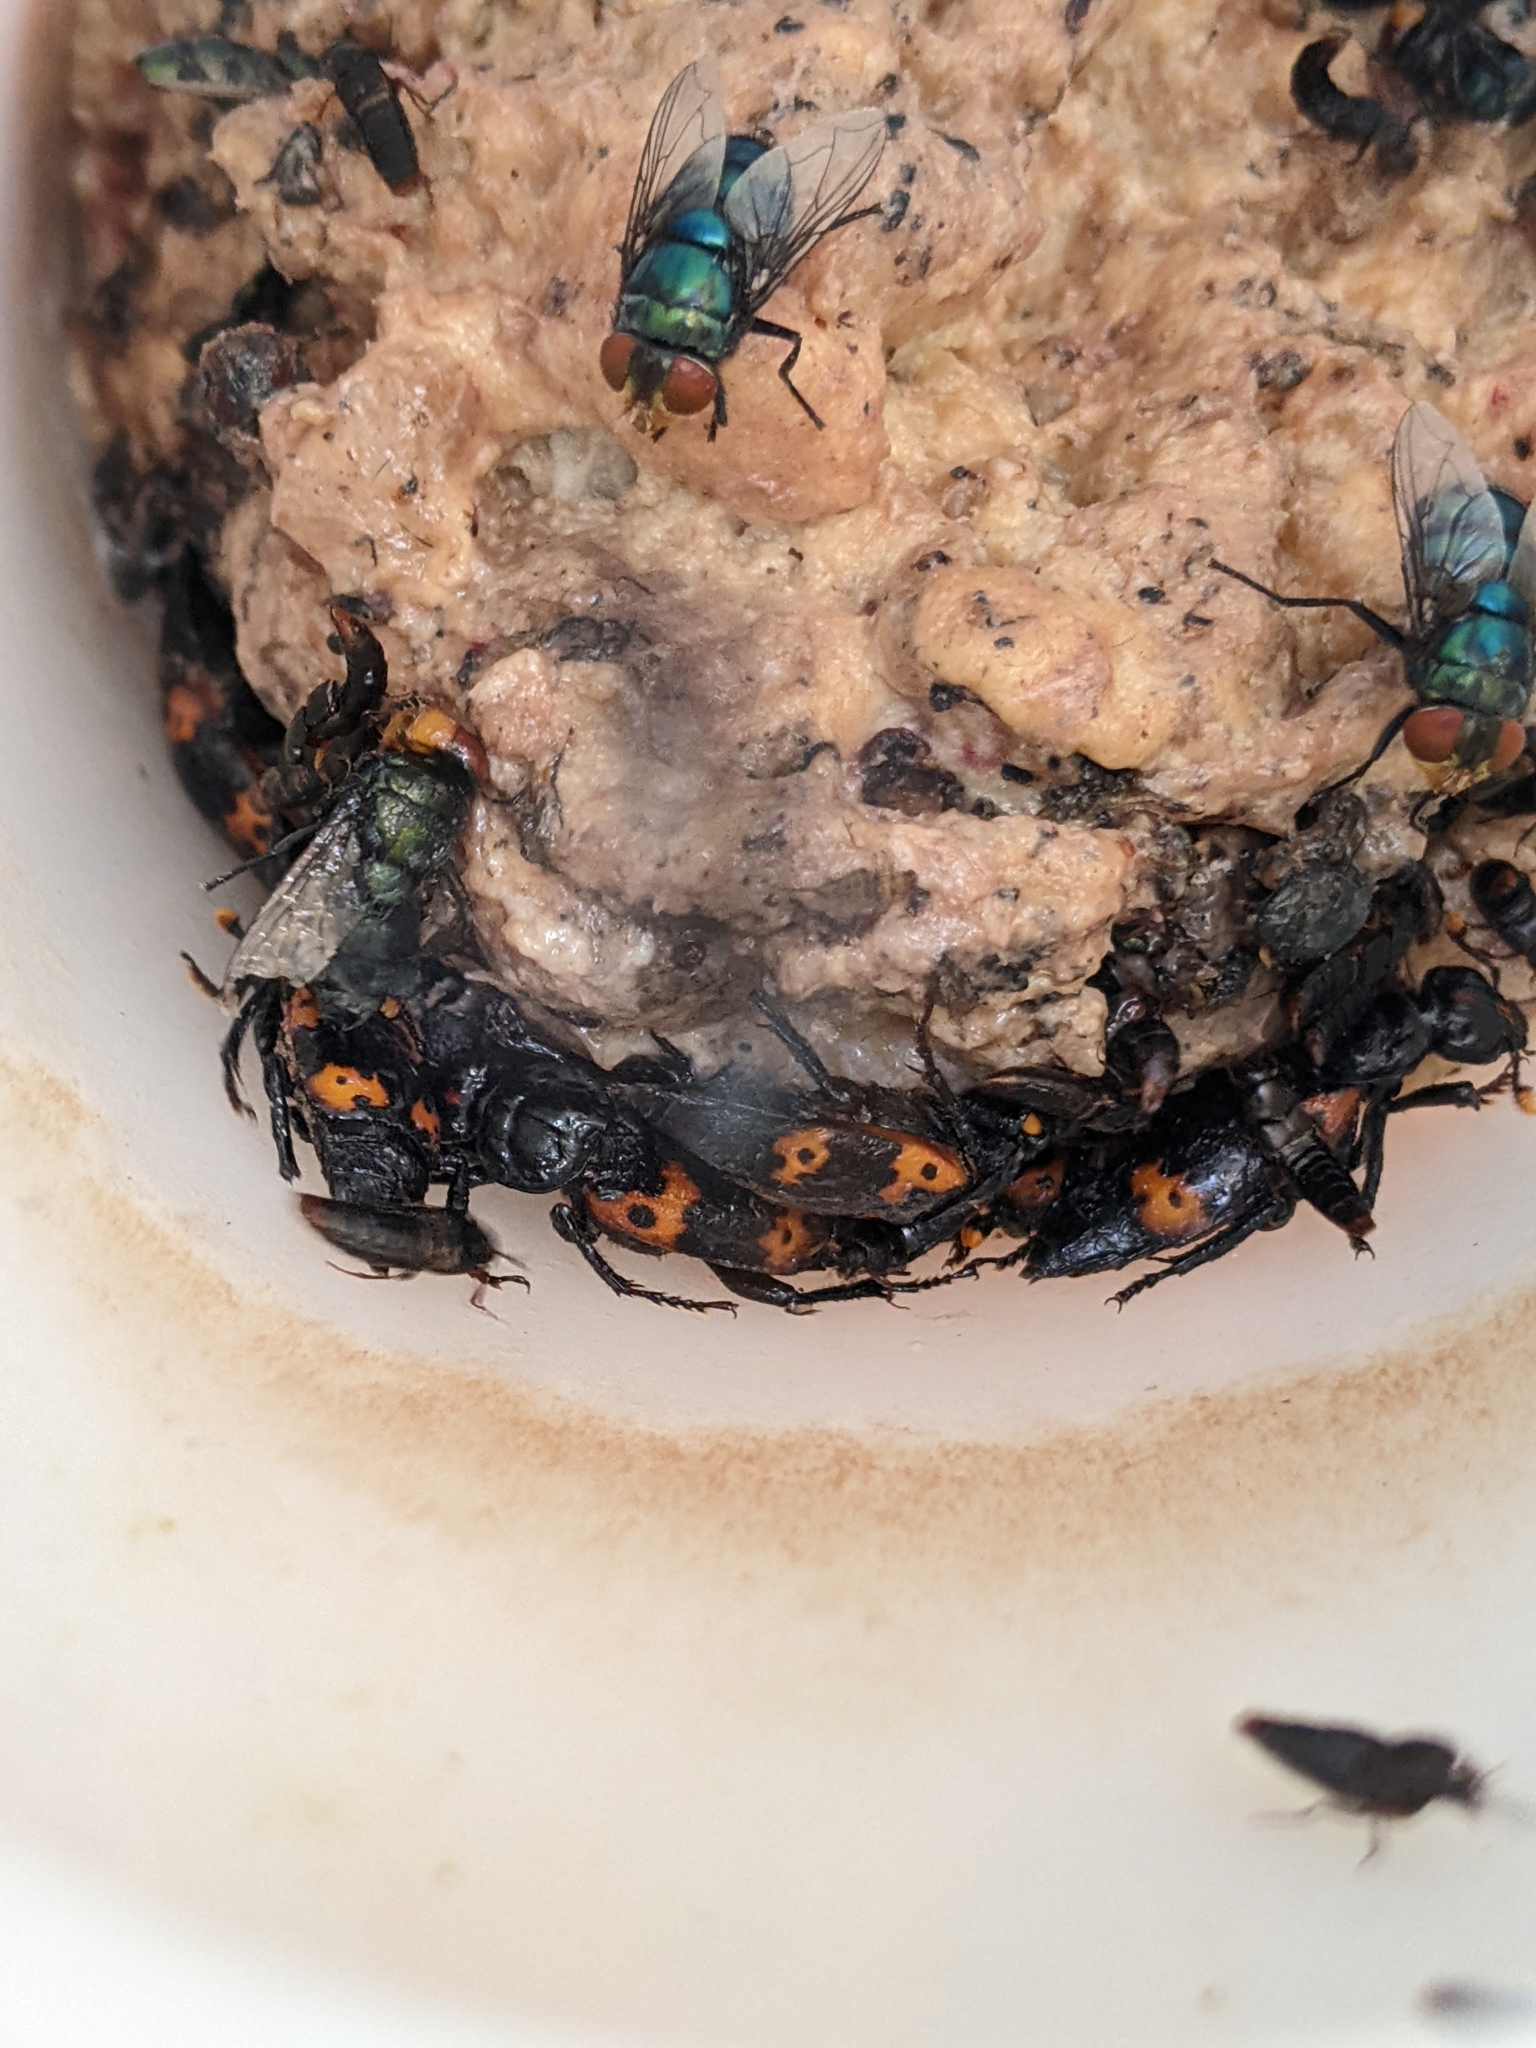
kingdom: Animalia
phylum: Arthropoda
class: Insecta
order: Coleoptera
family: Staphylinidae
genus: Nicrophorus
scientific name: Nicrophorus nepalensis
